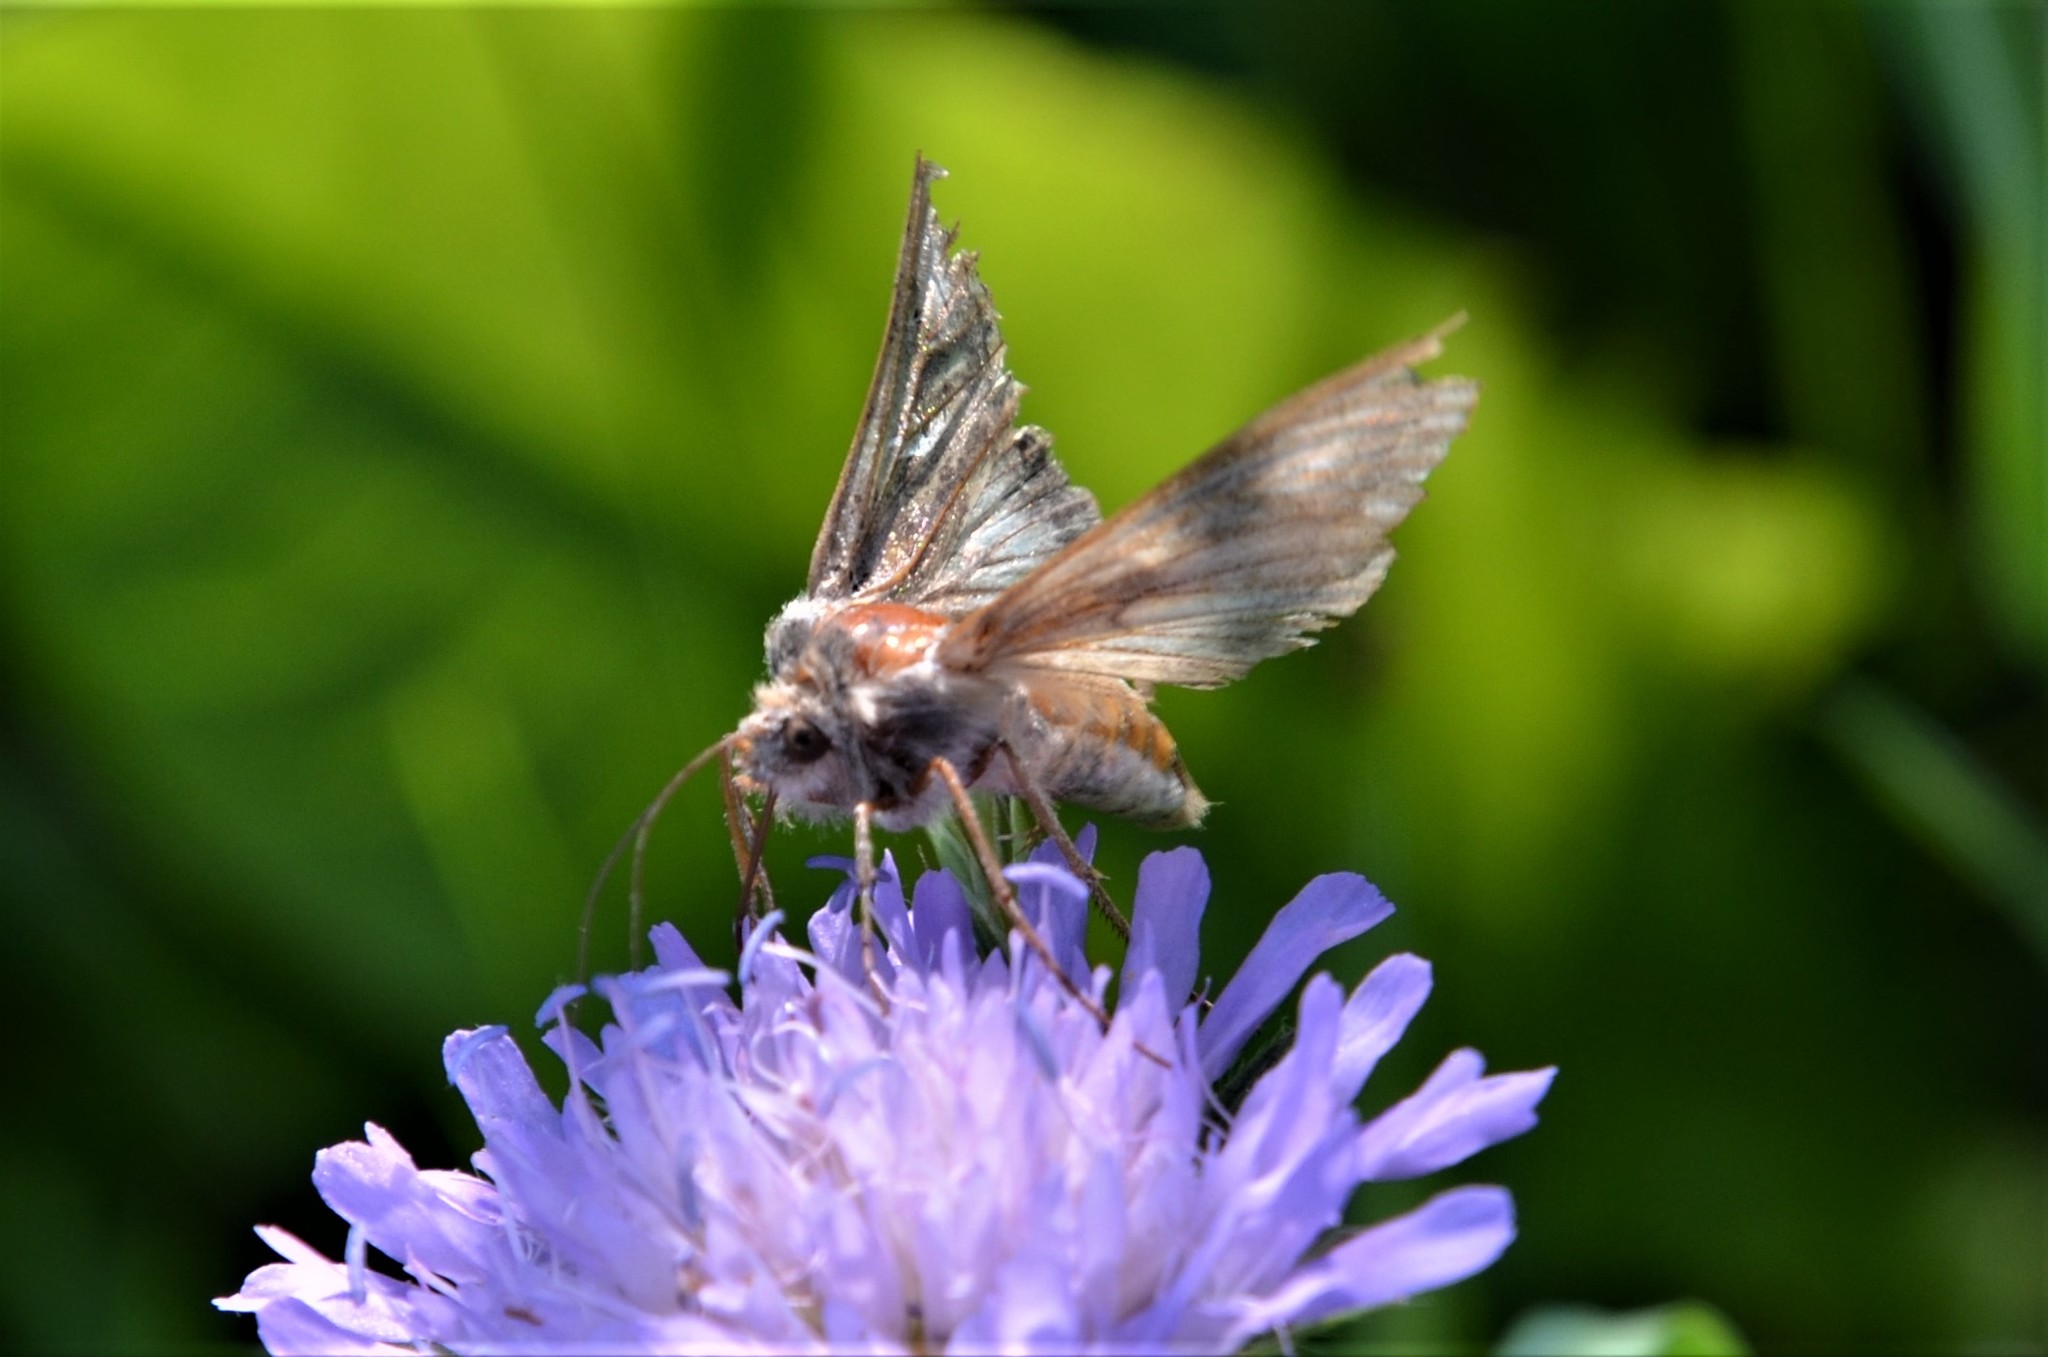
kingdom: Animalia
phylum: Arthropoda
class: Insecta
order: Lepidoptera
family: Noctuidae
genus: Autographa
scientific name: Autographa gamma
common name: Silver y
